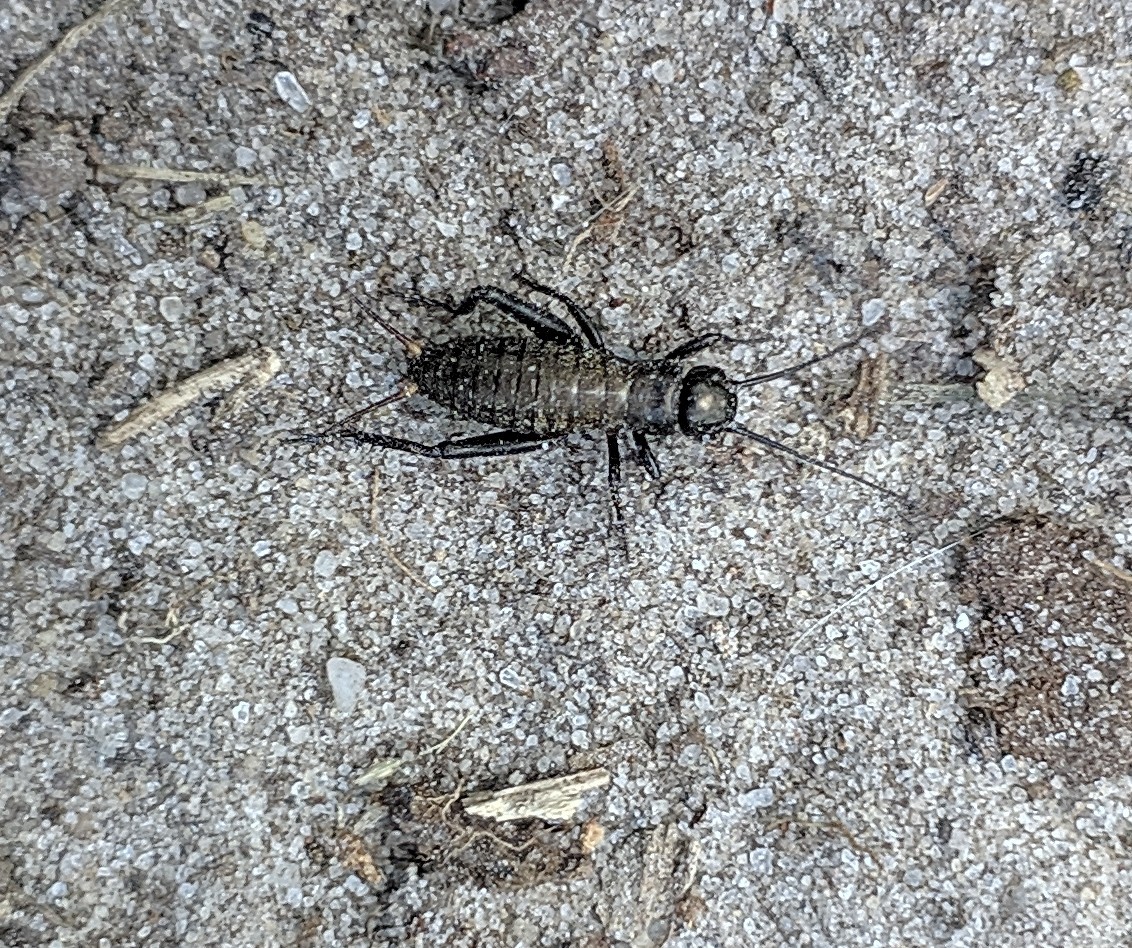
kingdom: Animalia
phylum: Arthropoda
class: Insecta
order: Orthoptera
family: Gryllidae
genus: Gryllus
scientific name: Gryllus campestris
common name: Field cricket
